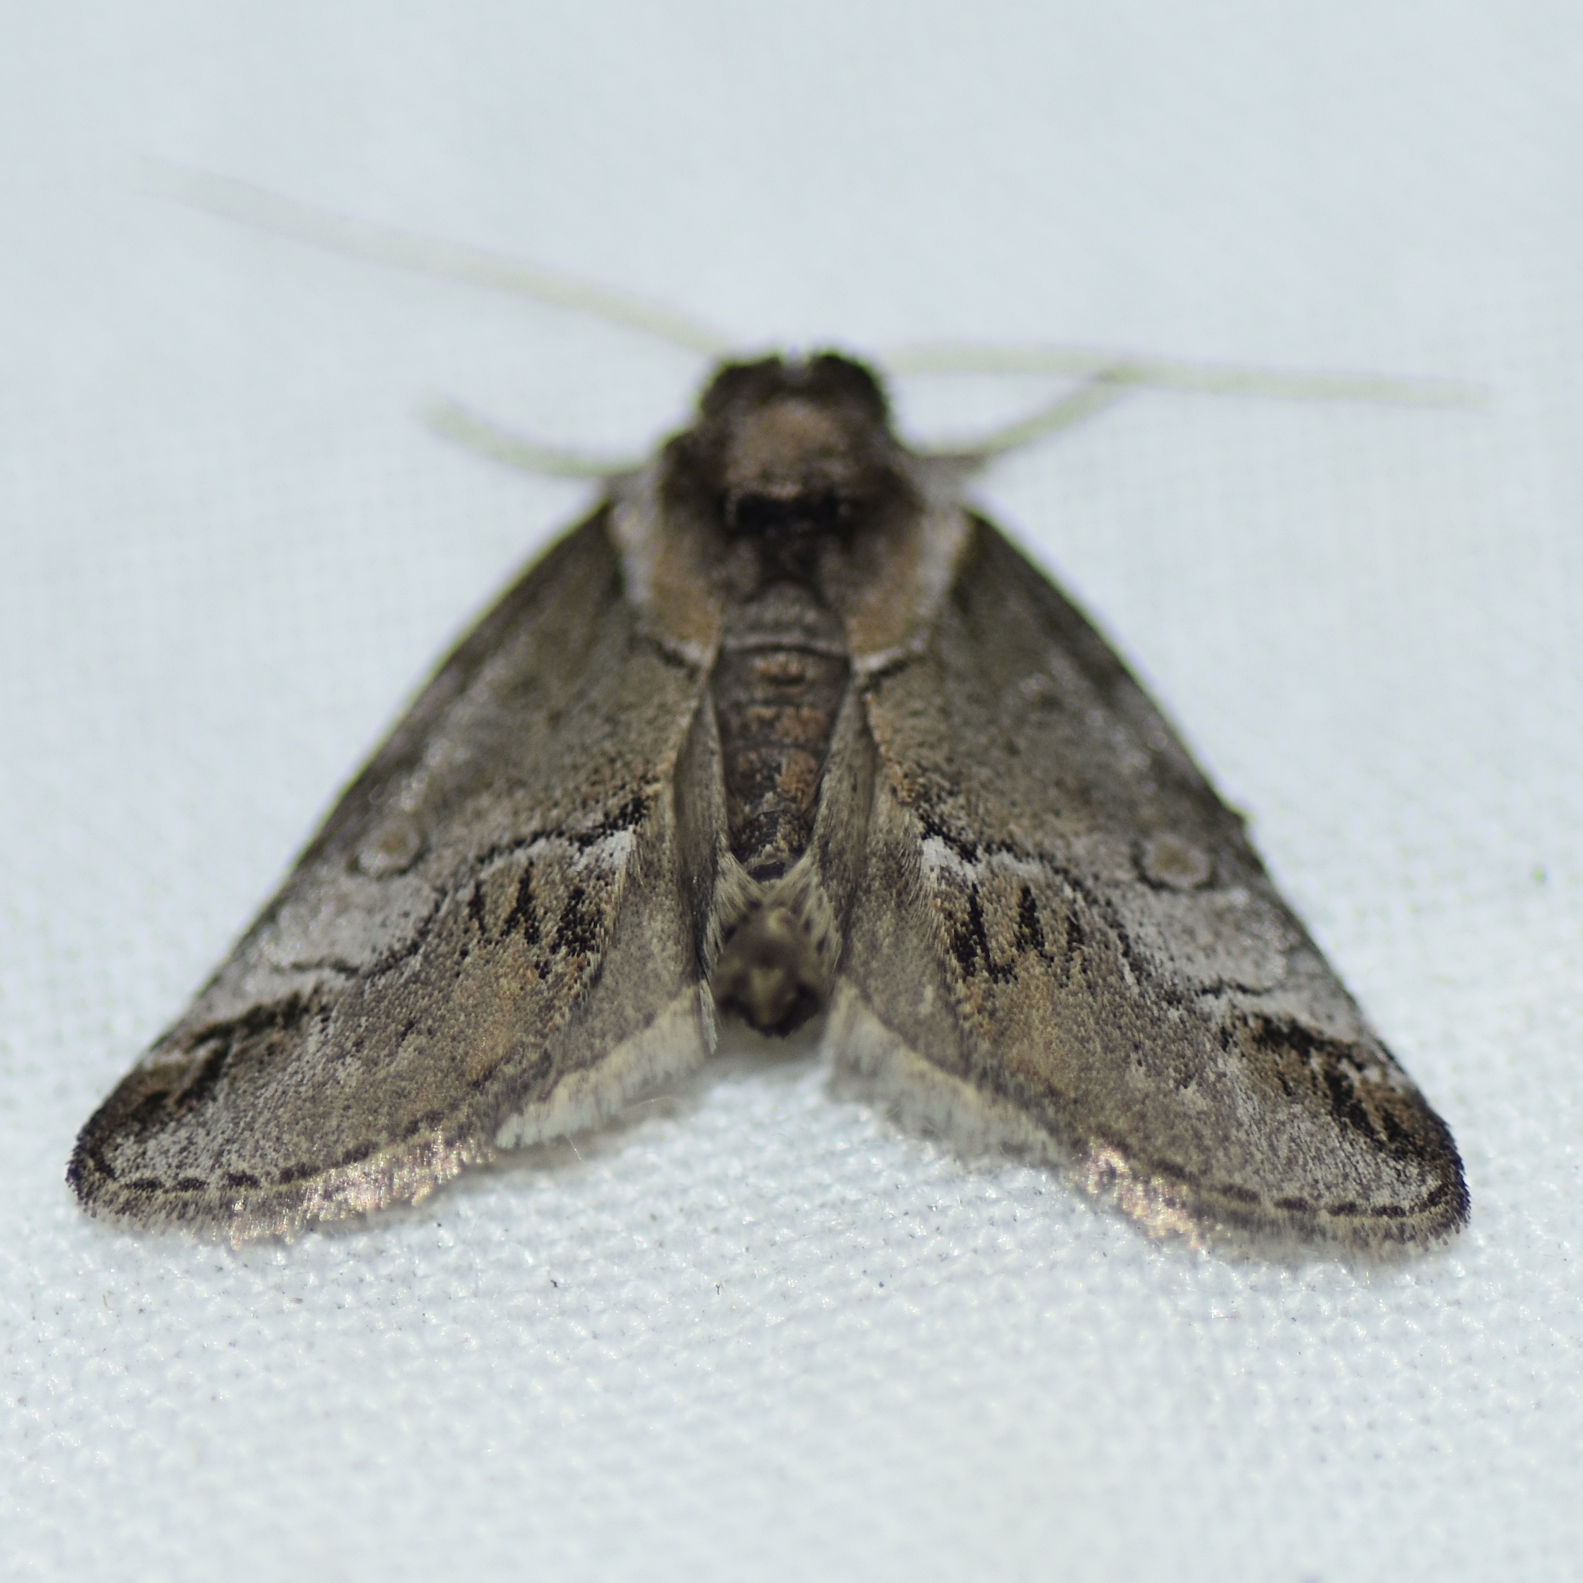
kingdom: Animalia
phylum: Arthropoda
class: Insecta
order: Lepidoptera
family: Nolidae
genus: Baileya
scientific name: Baileya australis
